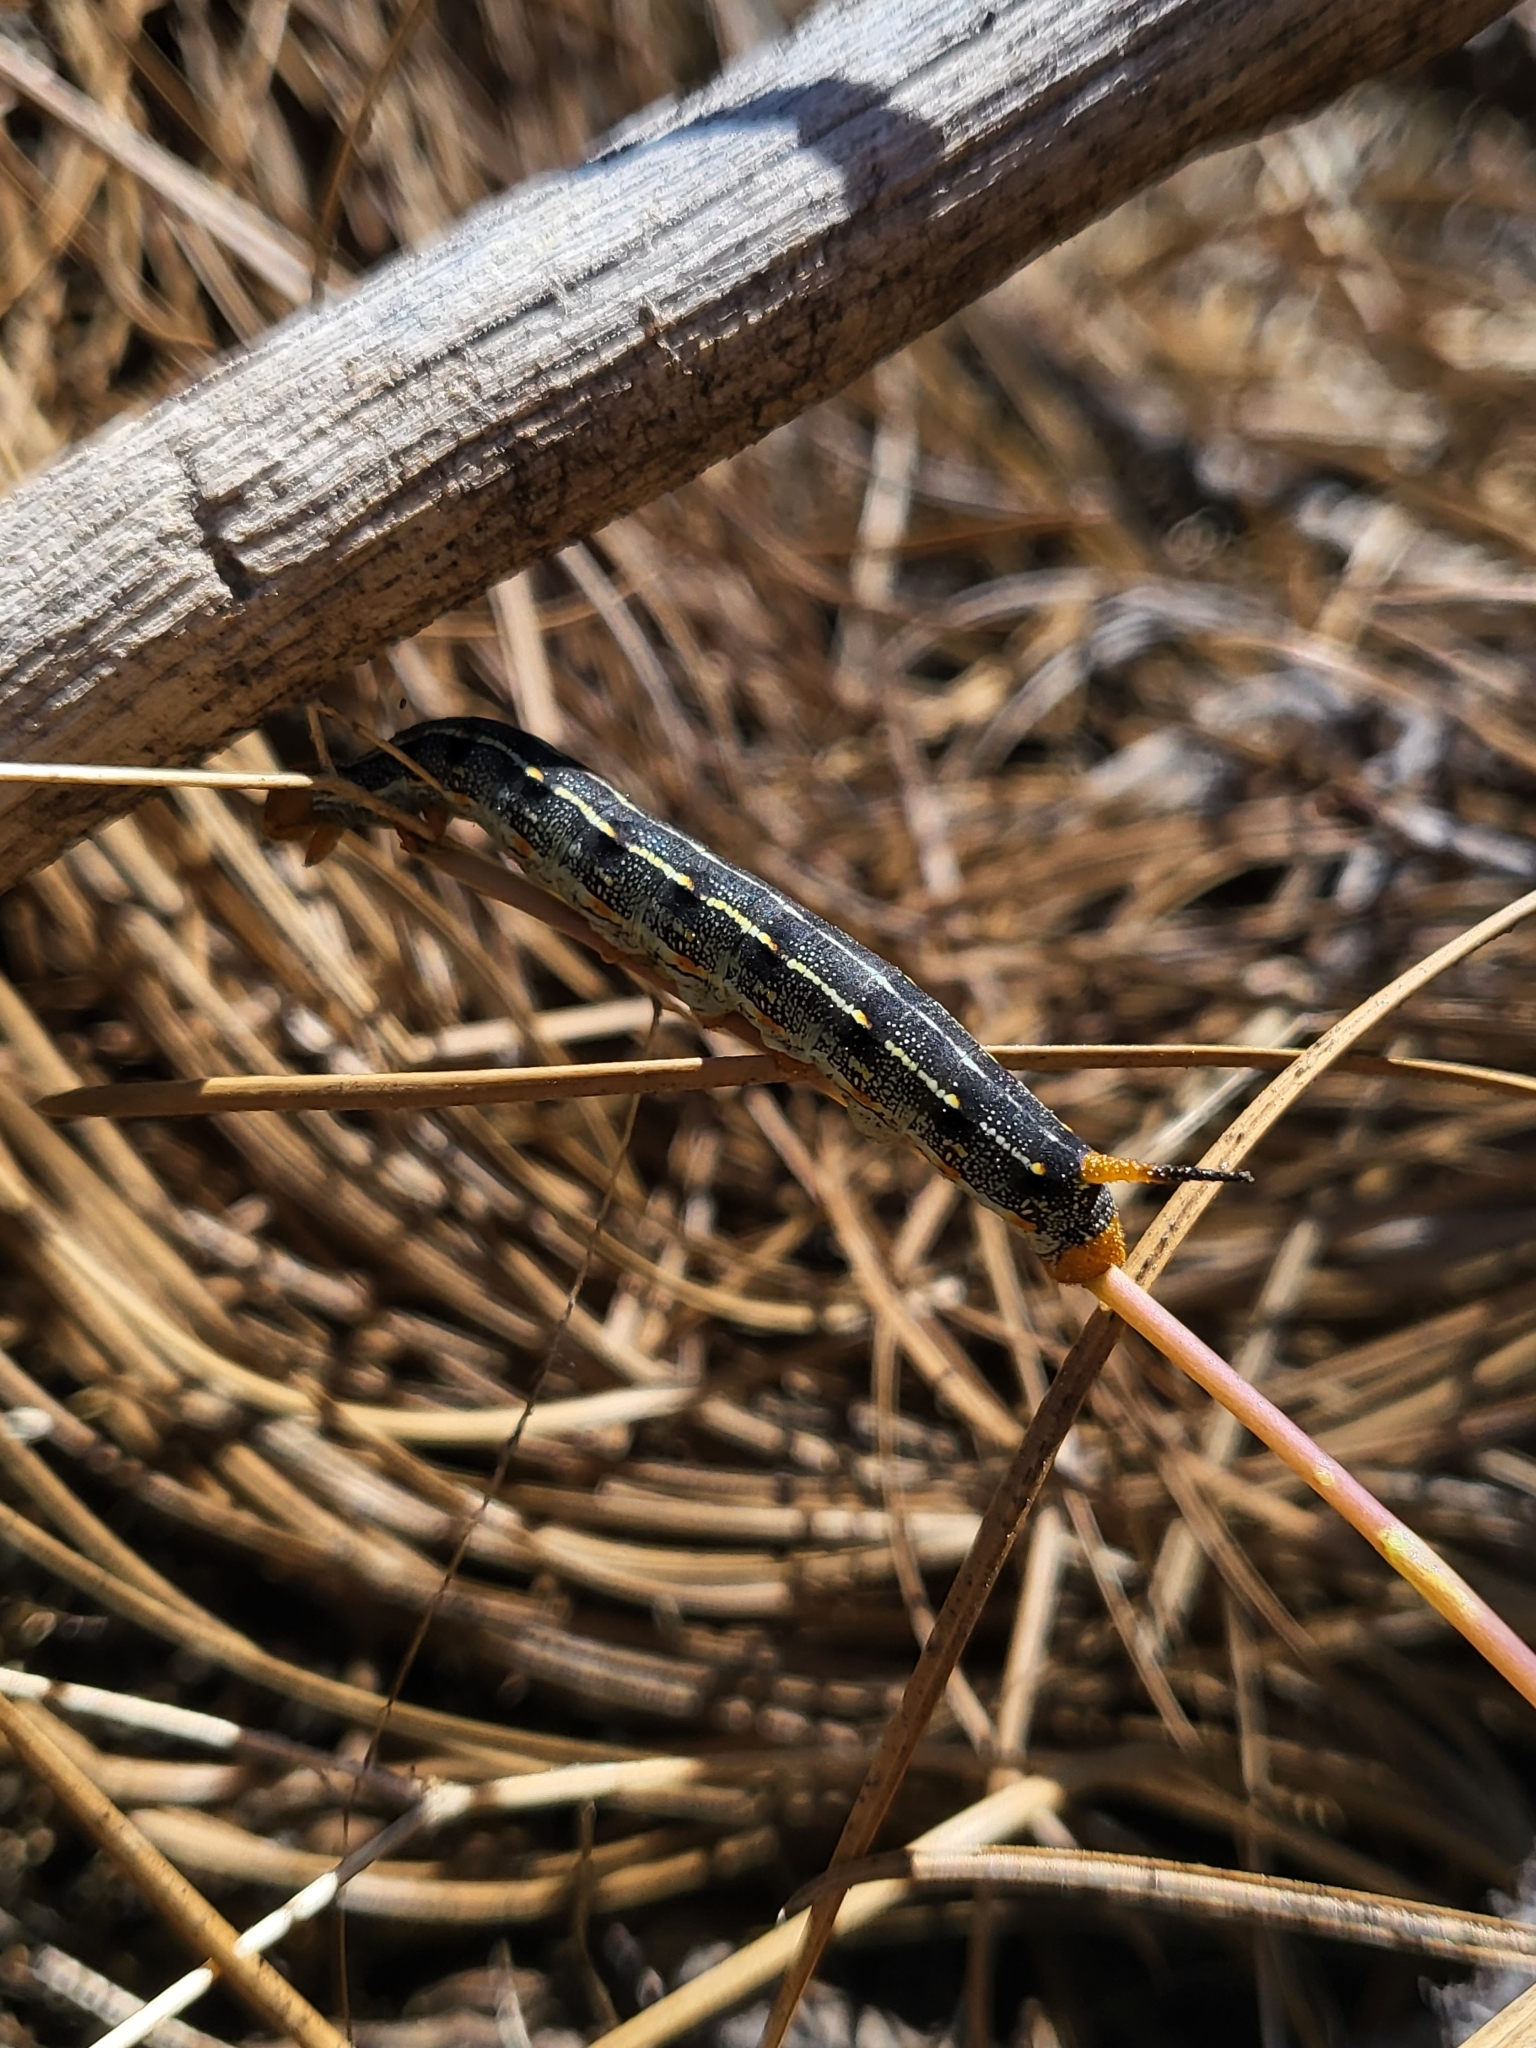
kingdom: Animalia
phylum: Arthropoda
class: Insecta
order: Lepidoptera
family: Sphingidae
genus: Hyles
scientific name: Hyles lineata
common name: White-lined sphinx
